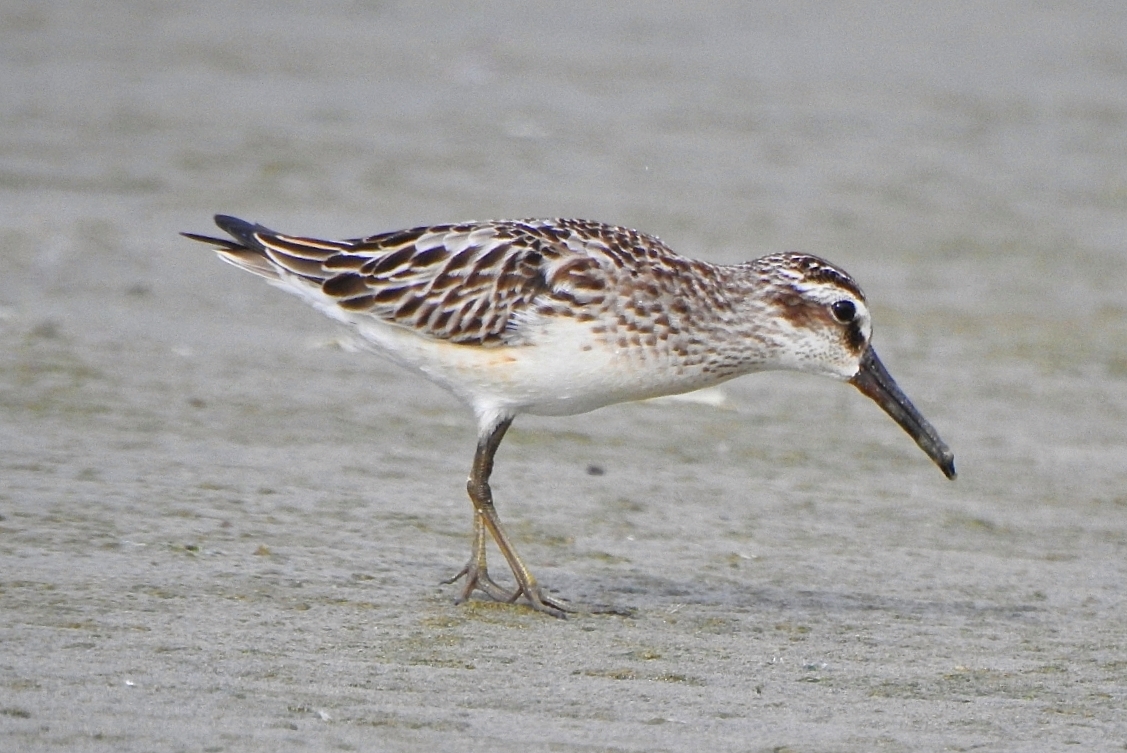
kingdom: Animalia
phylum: Chordata
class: Aves
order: Charadriiformes
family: Scolopacidae
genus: Calidris
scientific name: Calidris falcinellus
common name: Broad-billed sandpiper
